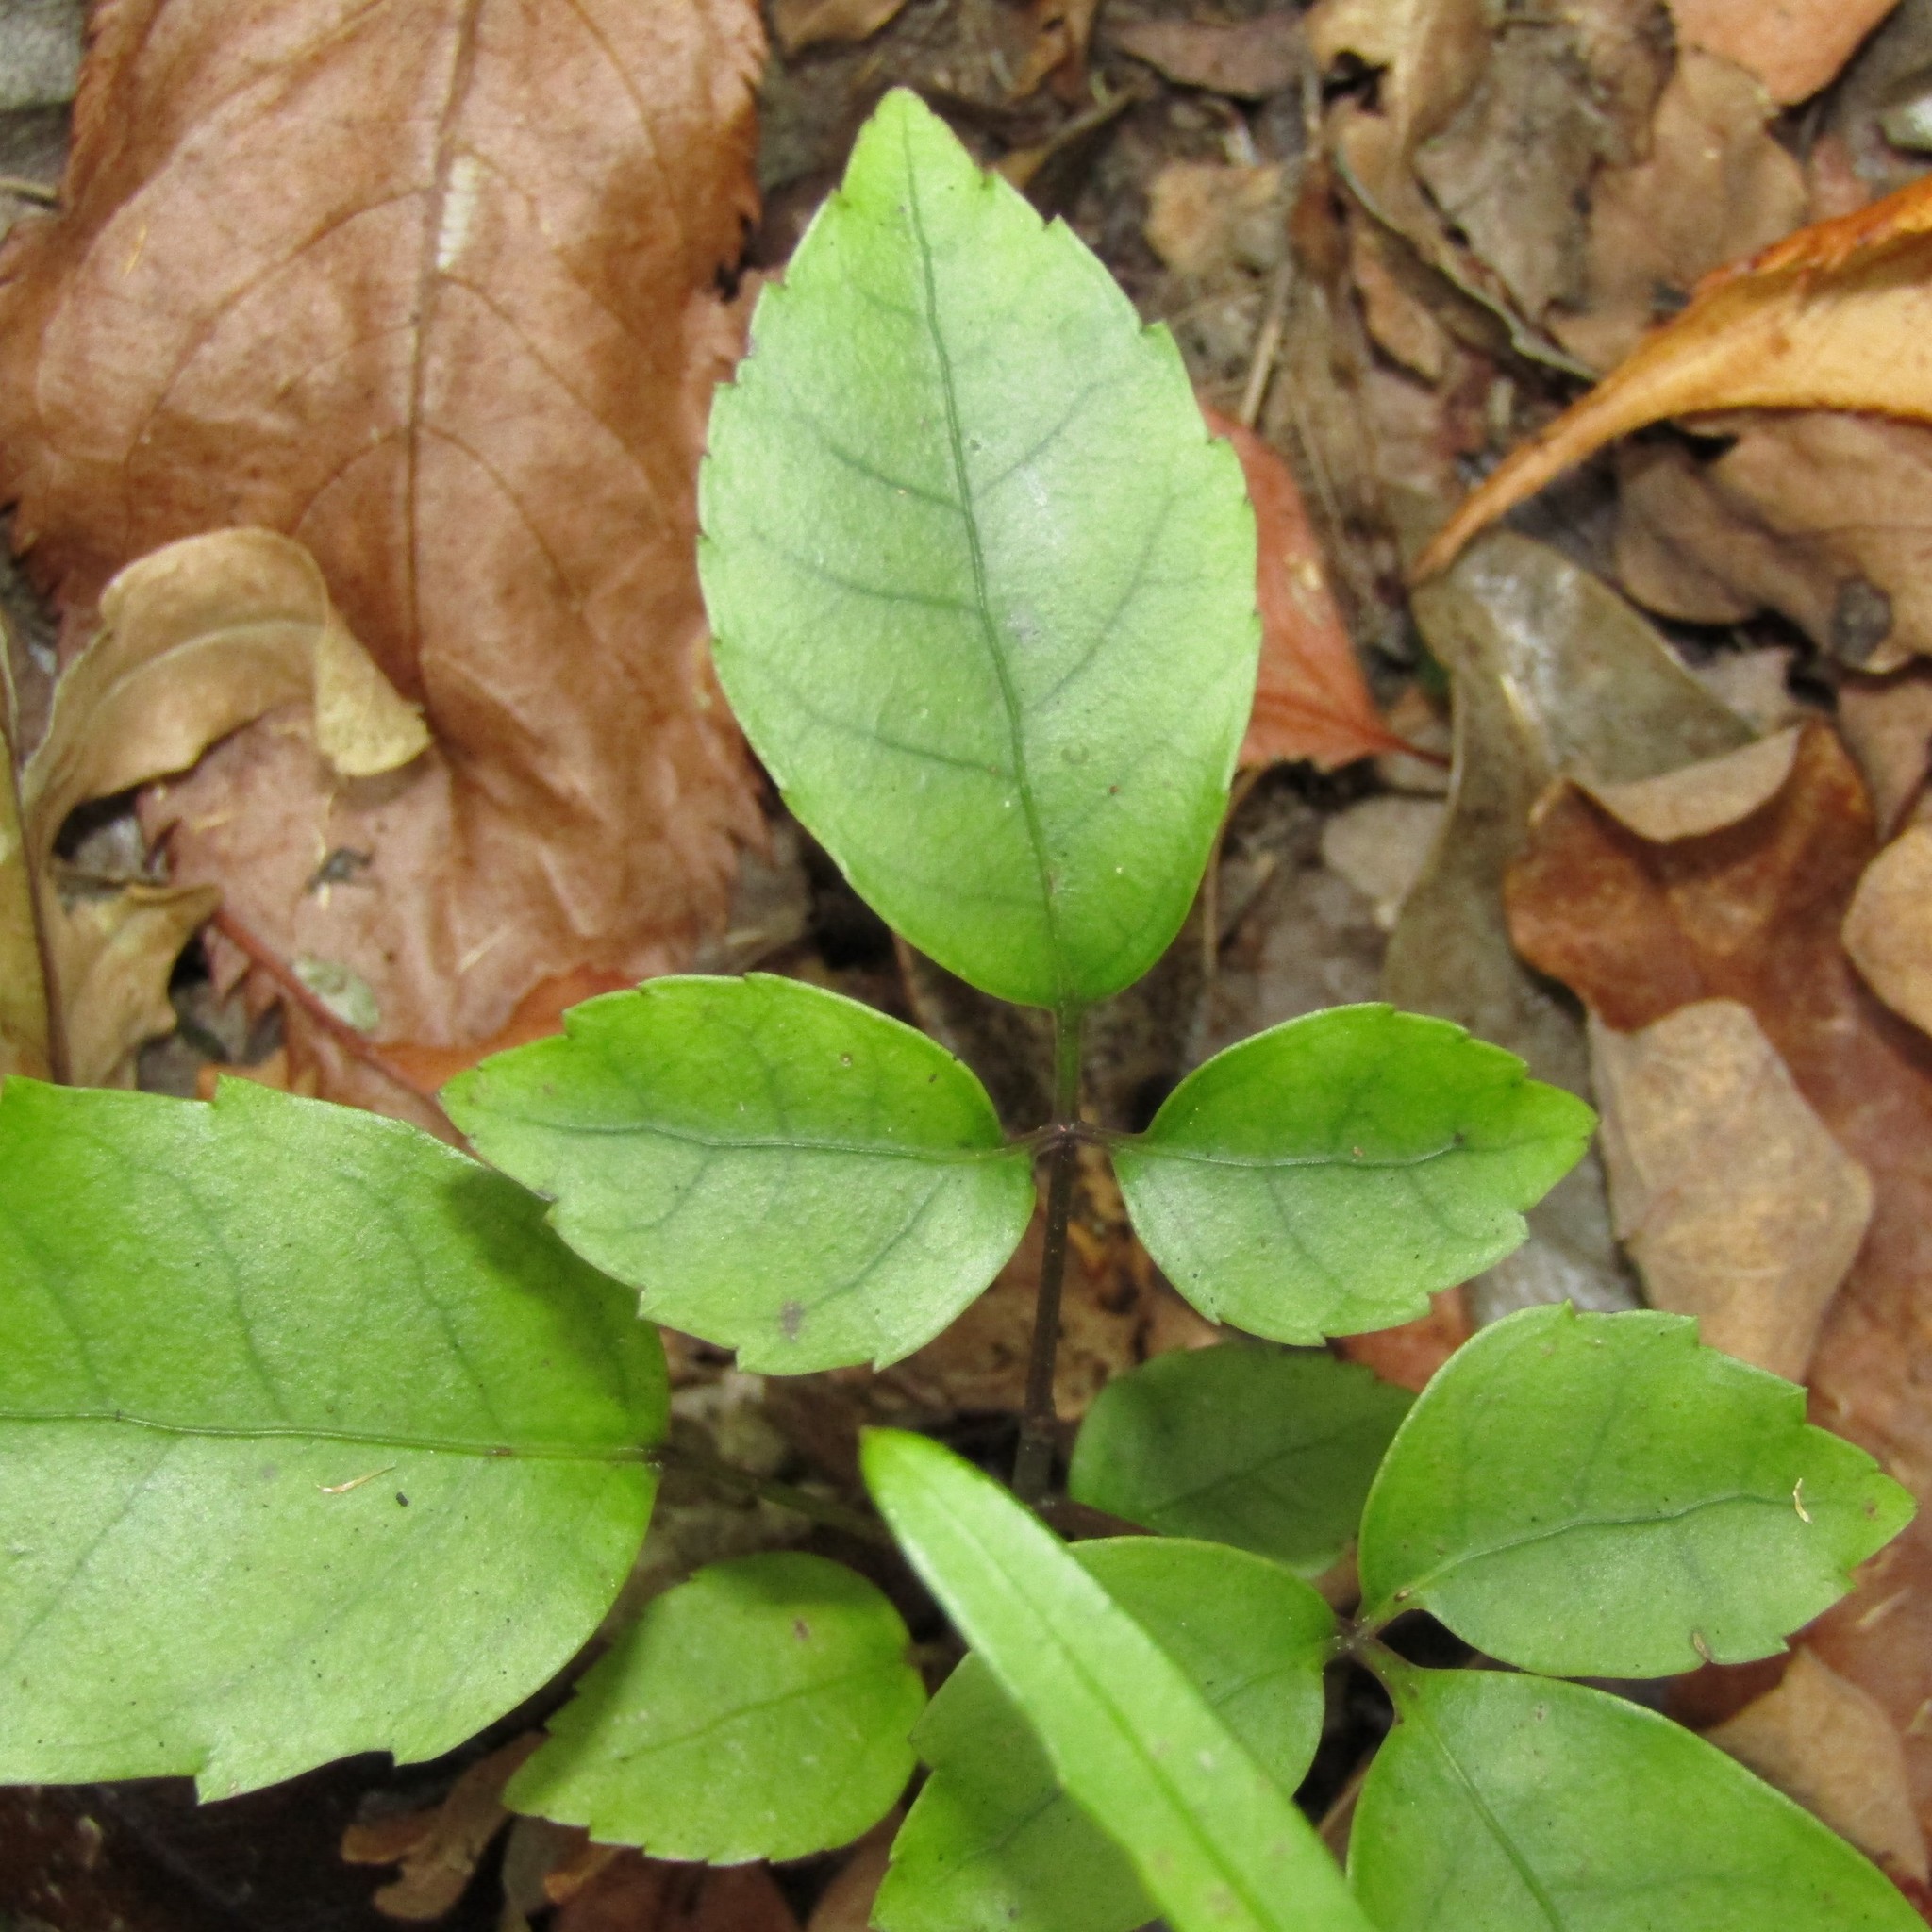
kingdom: Plantae
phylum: Tracheophyta
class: Magnoliopsida
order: Apiales
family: Araliaceae
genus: Neopanax
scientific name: Neopanax arboreus
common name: Five-fingers
